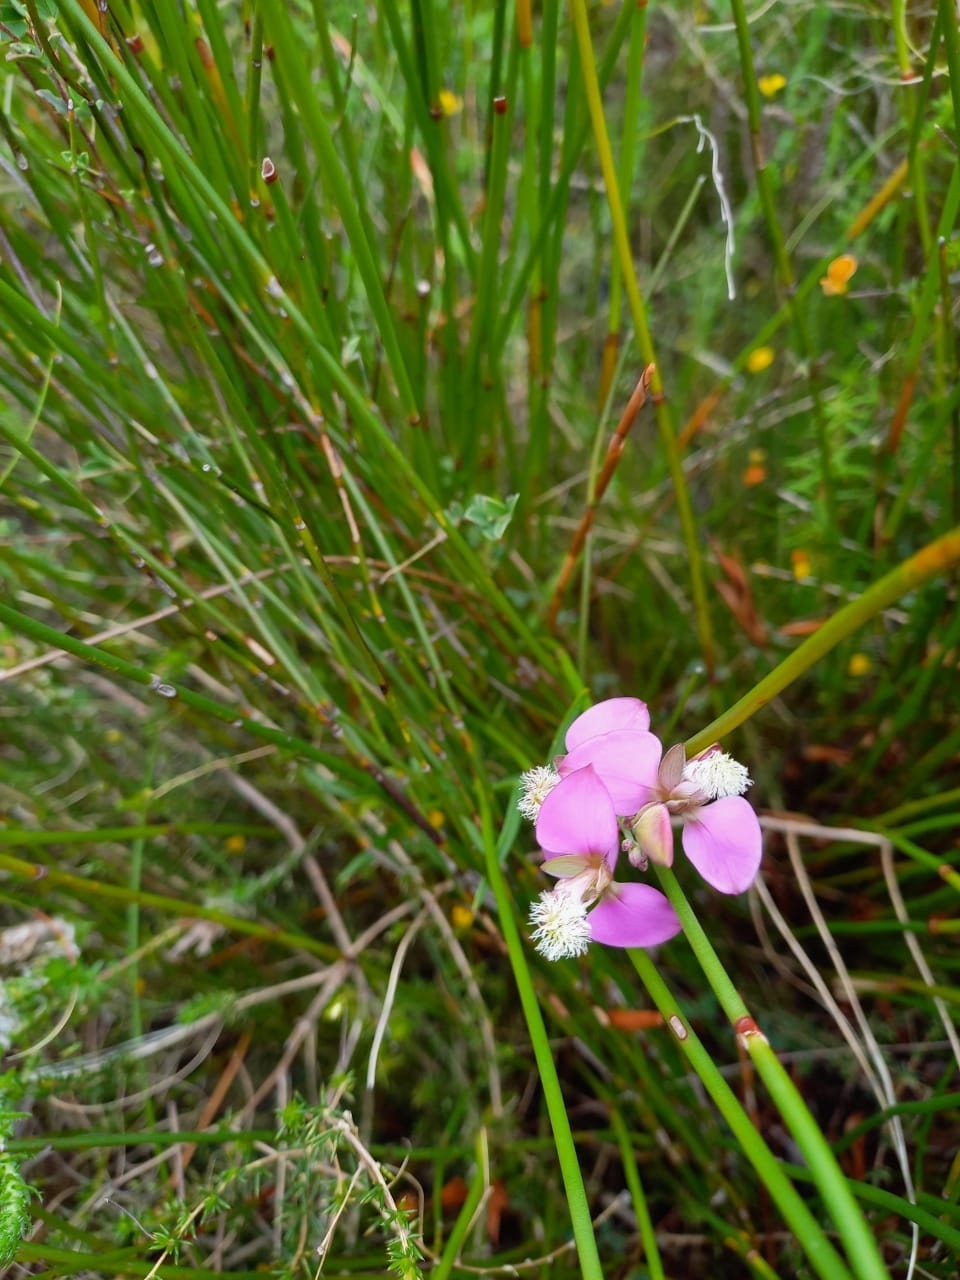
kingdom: Plantae
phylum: Tracheophyta
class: Magnoliopsida
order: Fabales
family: Polygalaceae
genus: Polygala
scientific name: Polygala bracteolata
